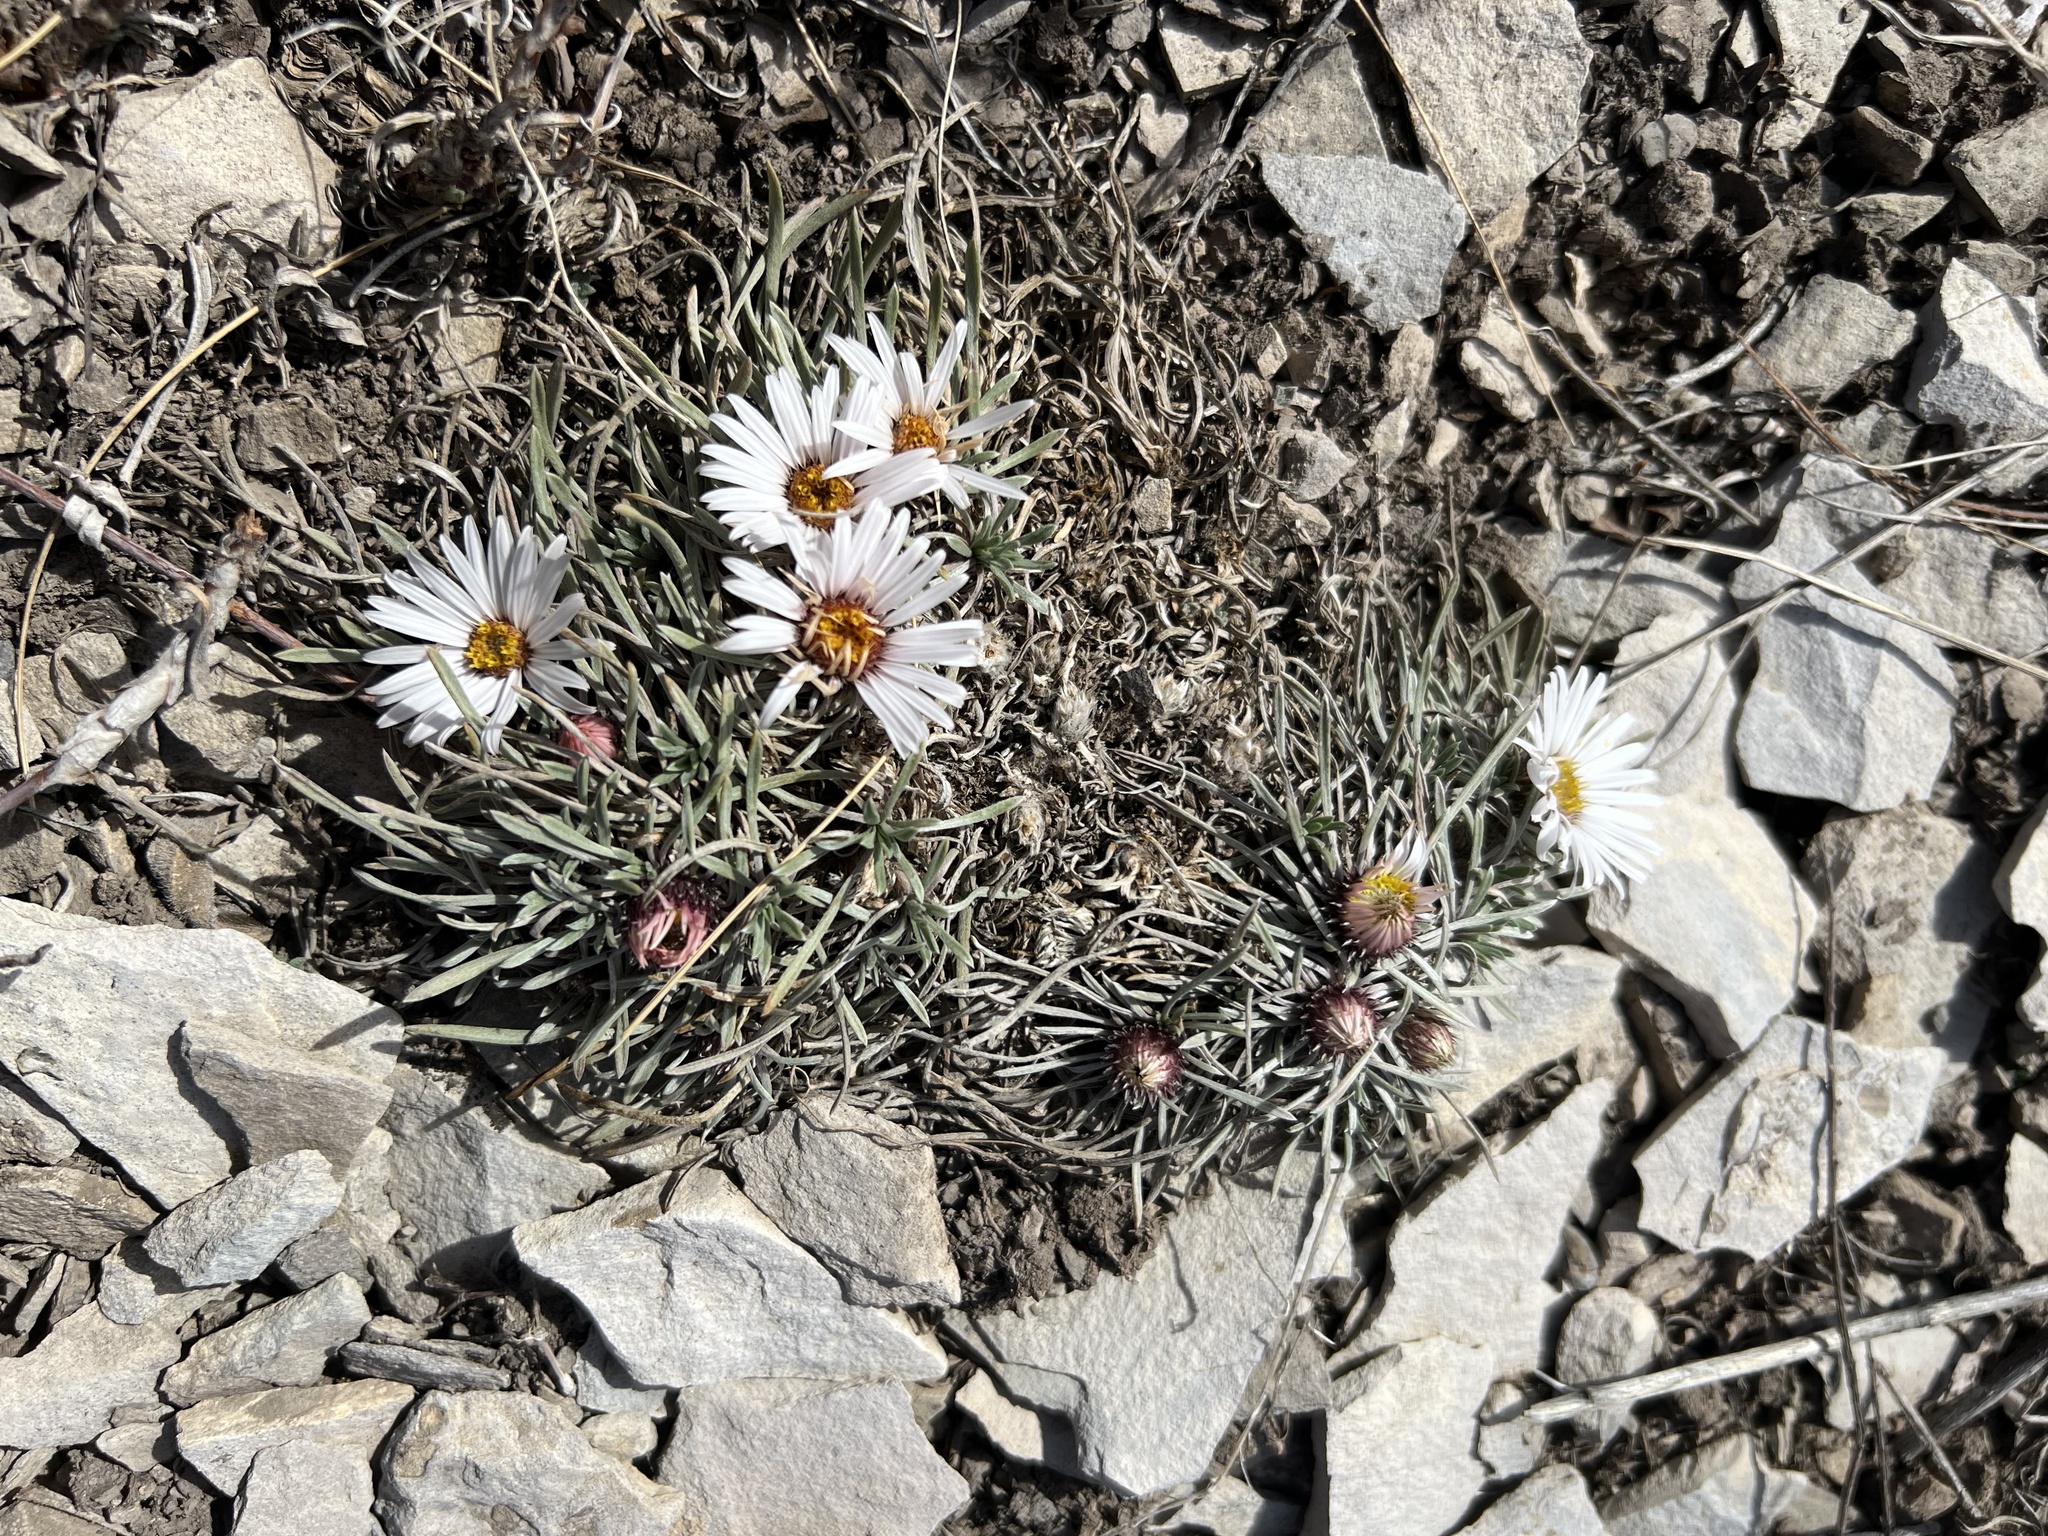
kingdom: Plantae
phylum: Tracheophyta
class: Magnoliopsida
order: Asterales
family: Asteraceae
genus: Townsendia
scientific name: Townsendia hookeri
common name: Hooker's townsend daisy
